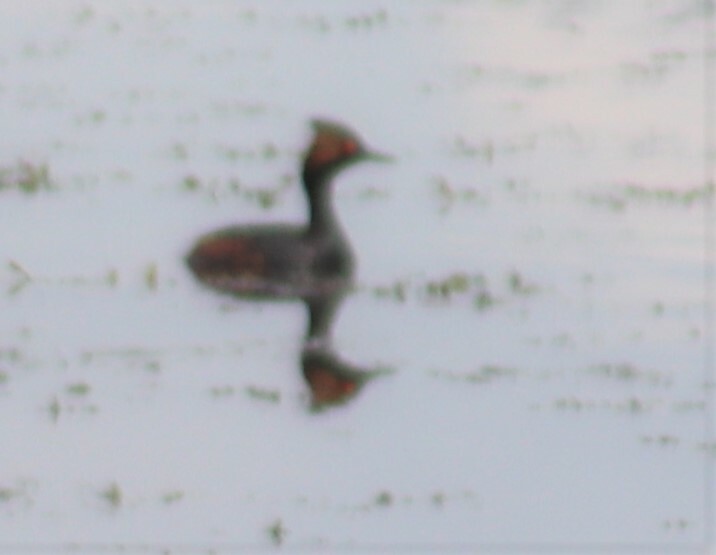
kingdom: Animalia
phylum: Chordata
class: Aves
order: Podicipediformes
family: Podicipedidae
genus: Podiceps
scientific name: Podiceps nigricollis
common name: Black-necked grebe
